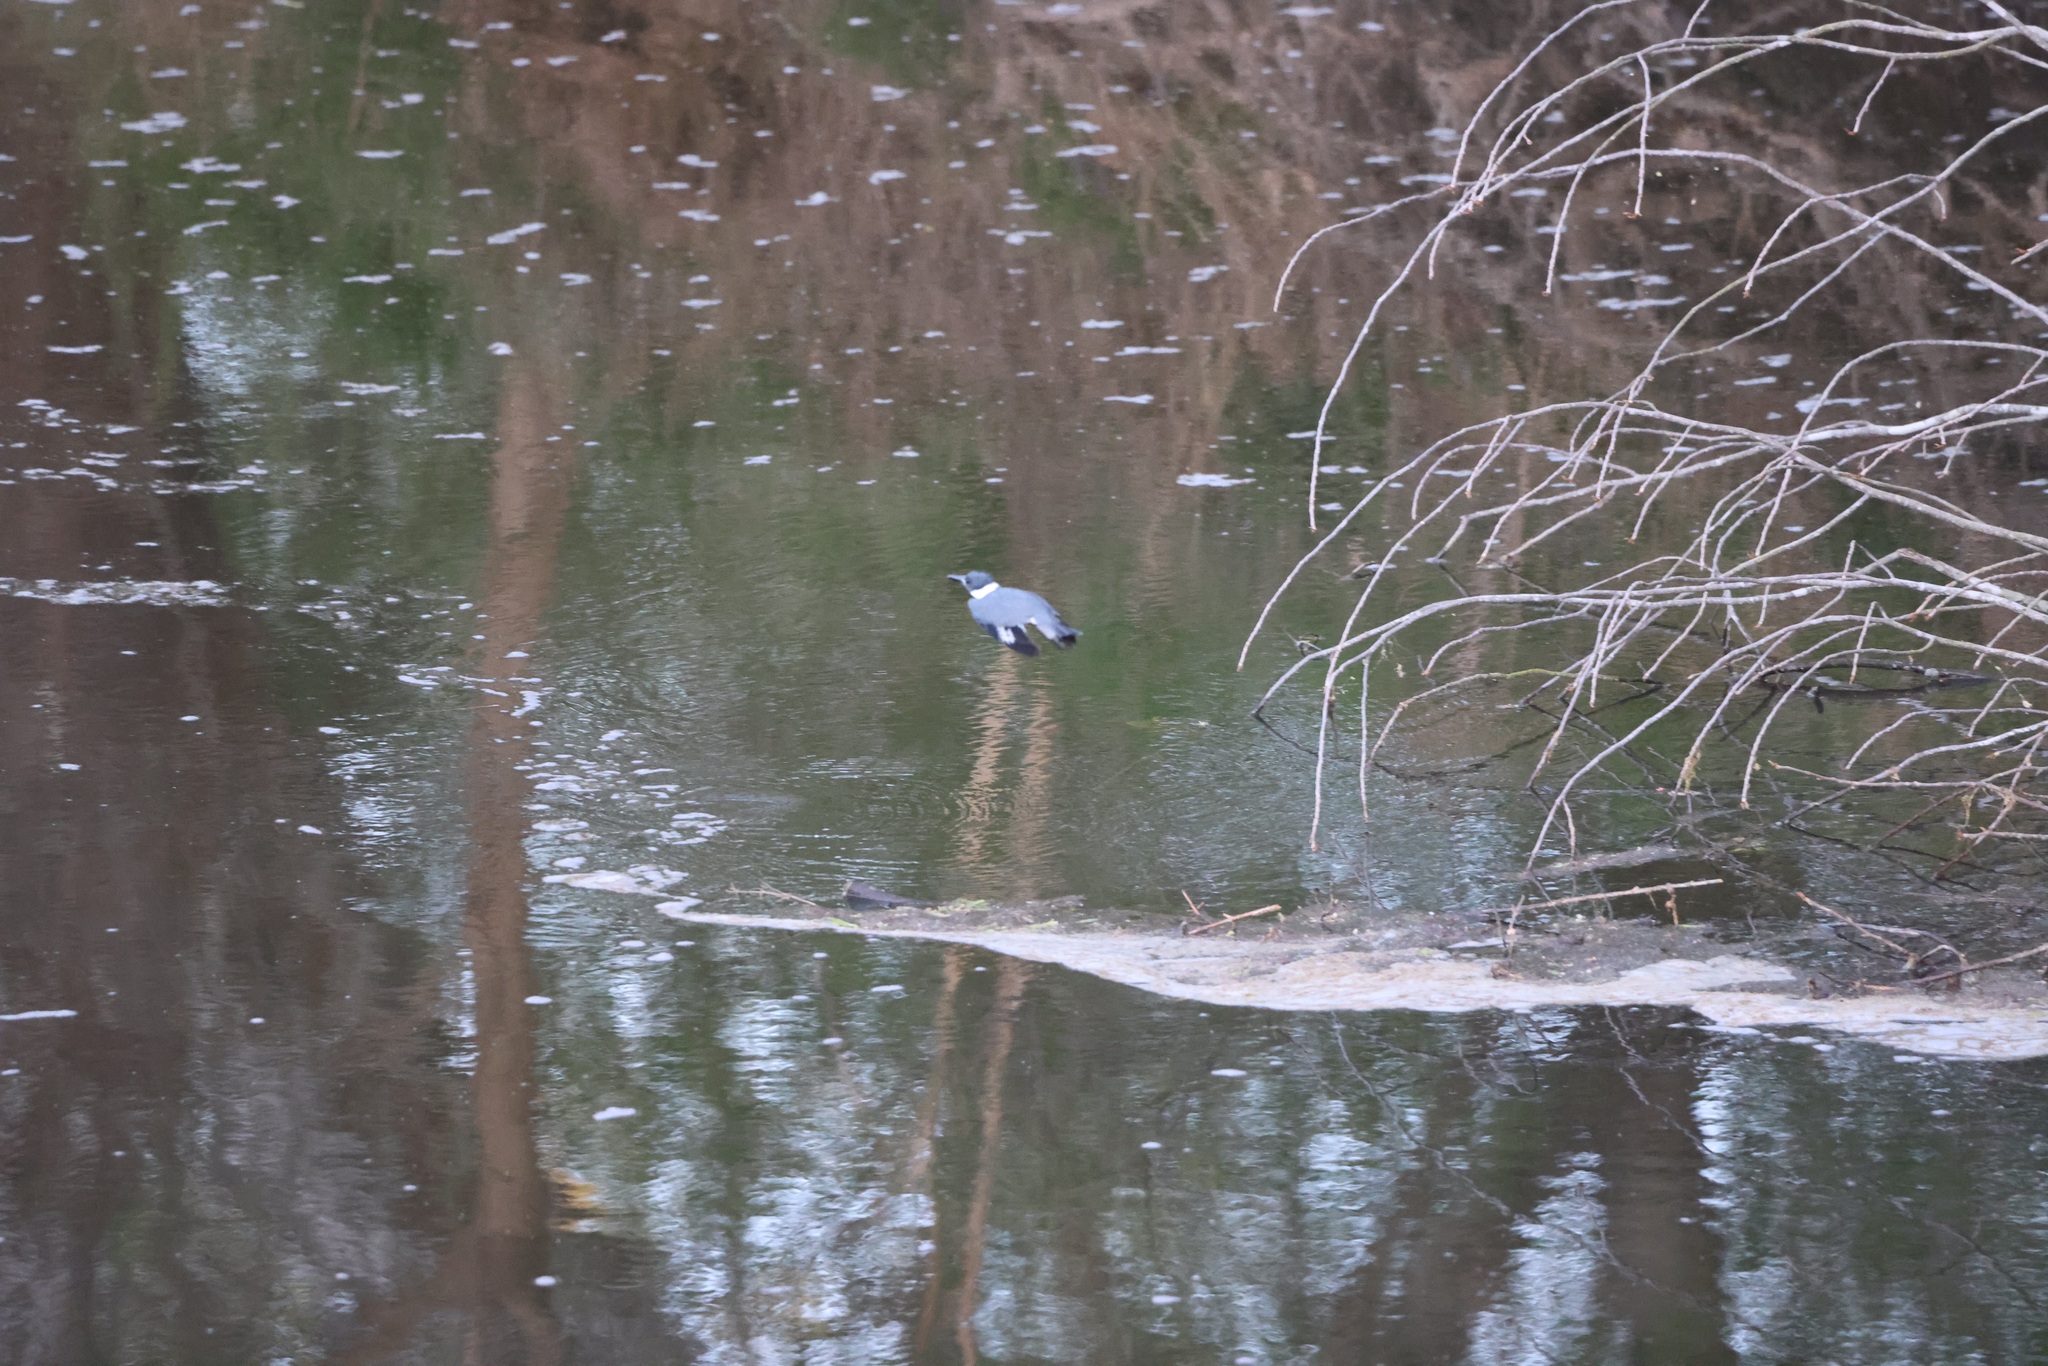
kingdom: Animalia
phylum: Chordata
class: Aves
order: Coraciiformes
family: Alcedinidae
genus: Megaceryle
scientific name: Megaceryle alcyon
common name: Belted kingfisher
